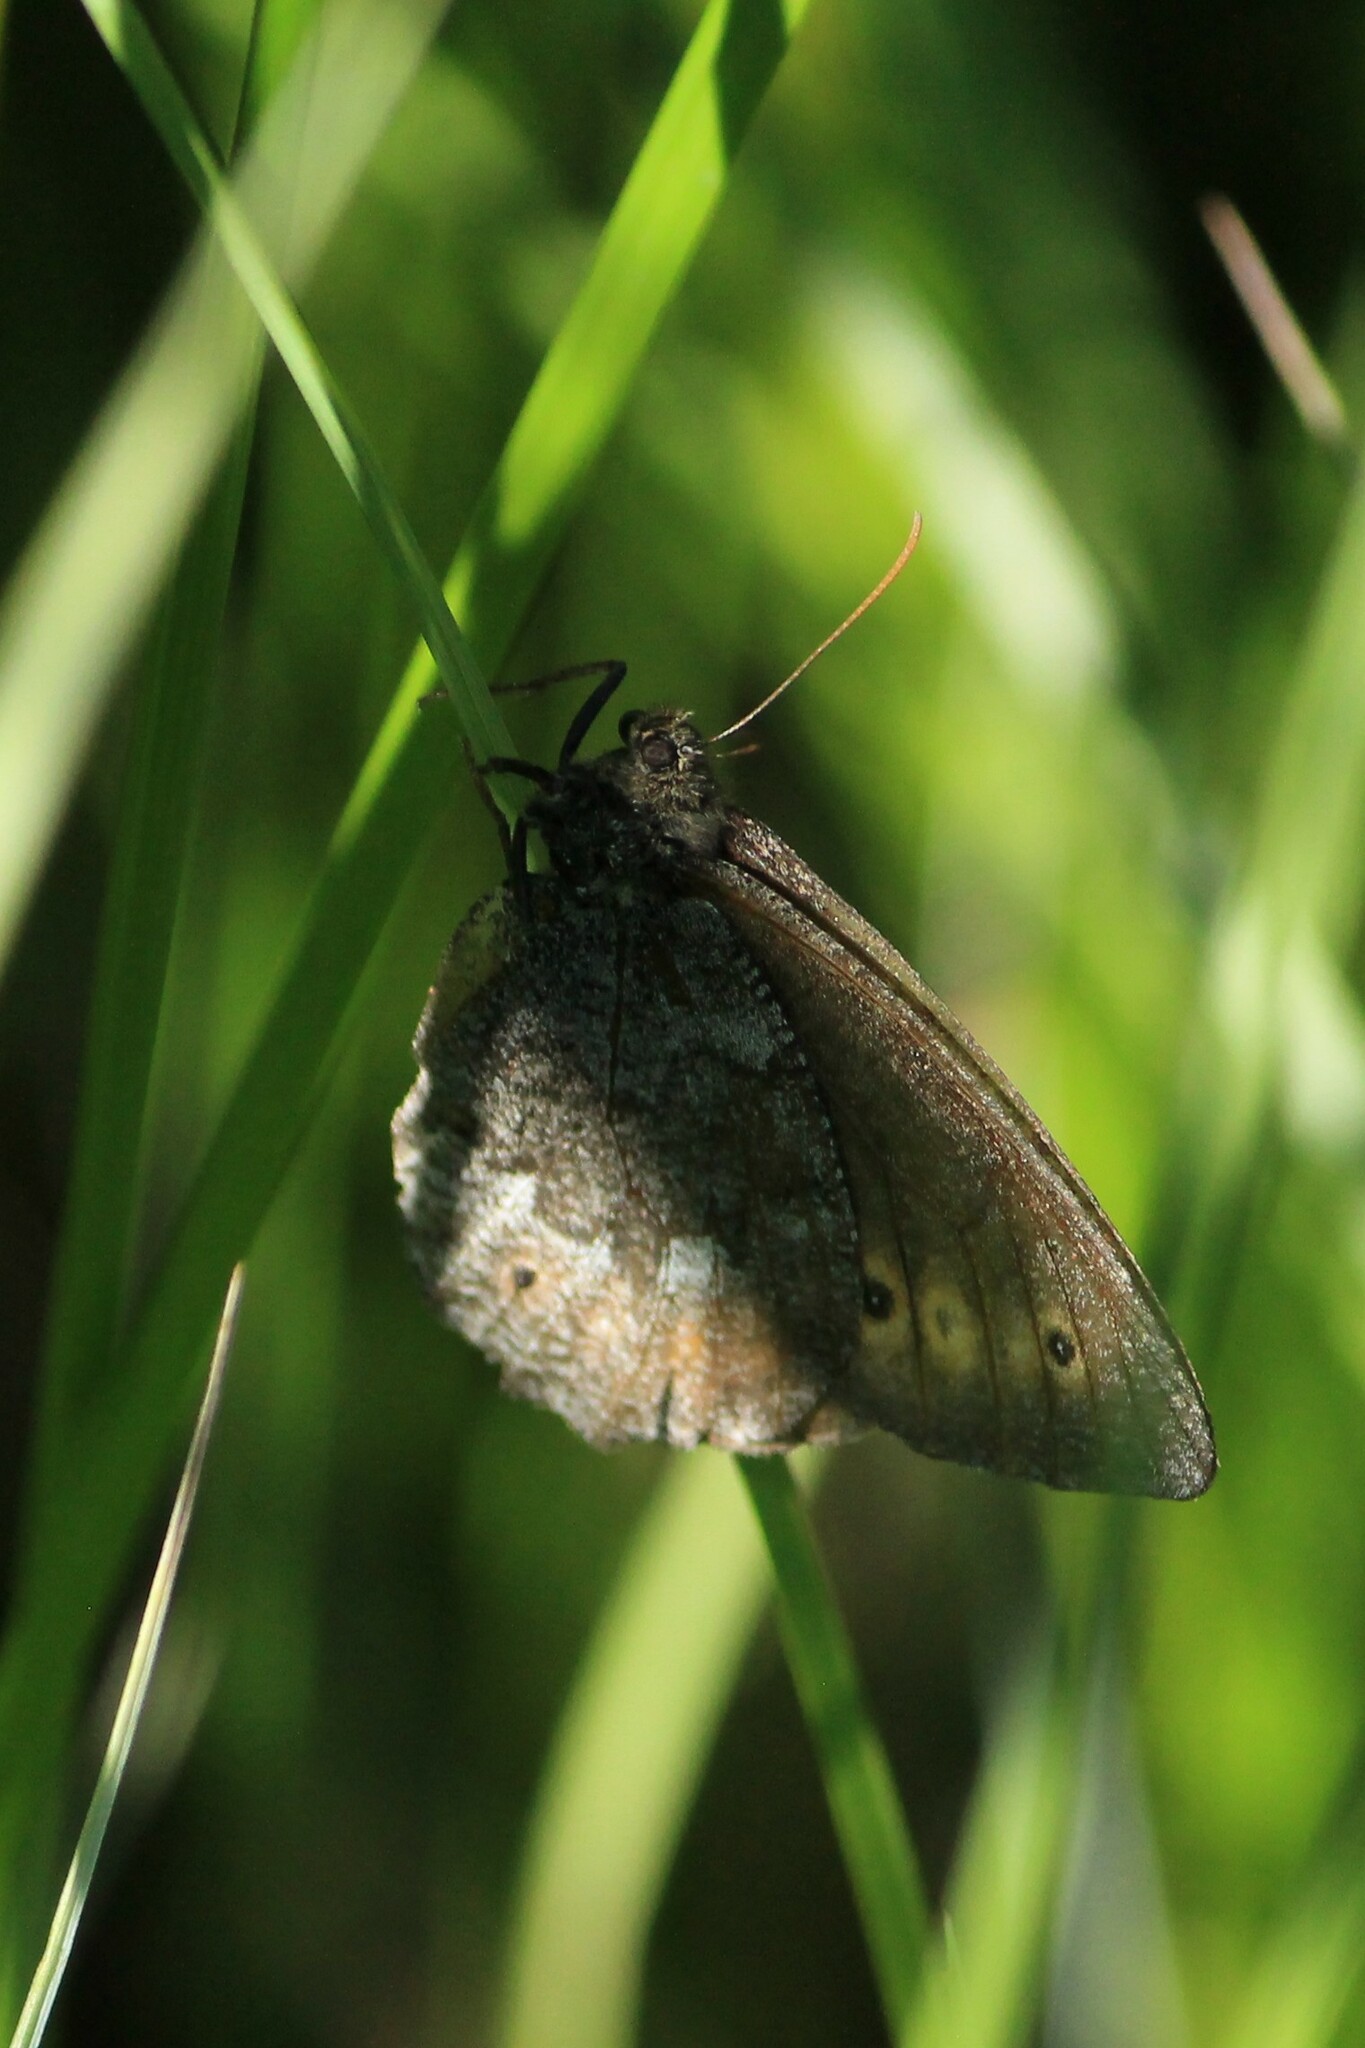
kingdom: Animalia
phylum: Arthropoda
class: Insecta
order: Lepidoptera
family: Nymphalidae
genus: Oeneis
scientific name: Oeneis jutta
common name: Baltic grayling
